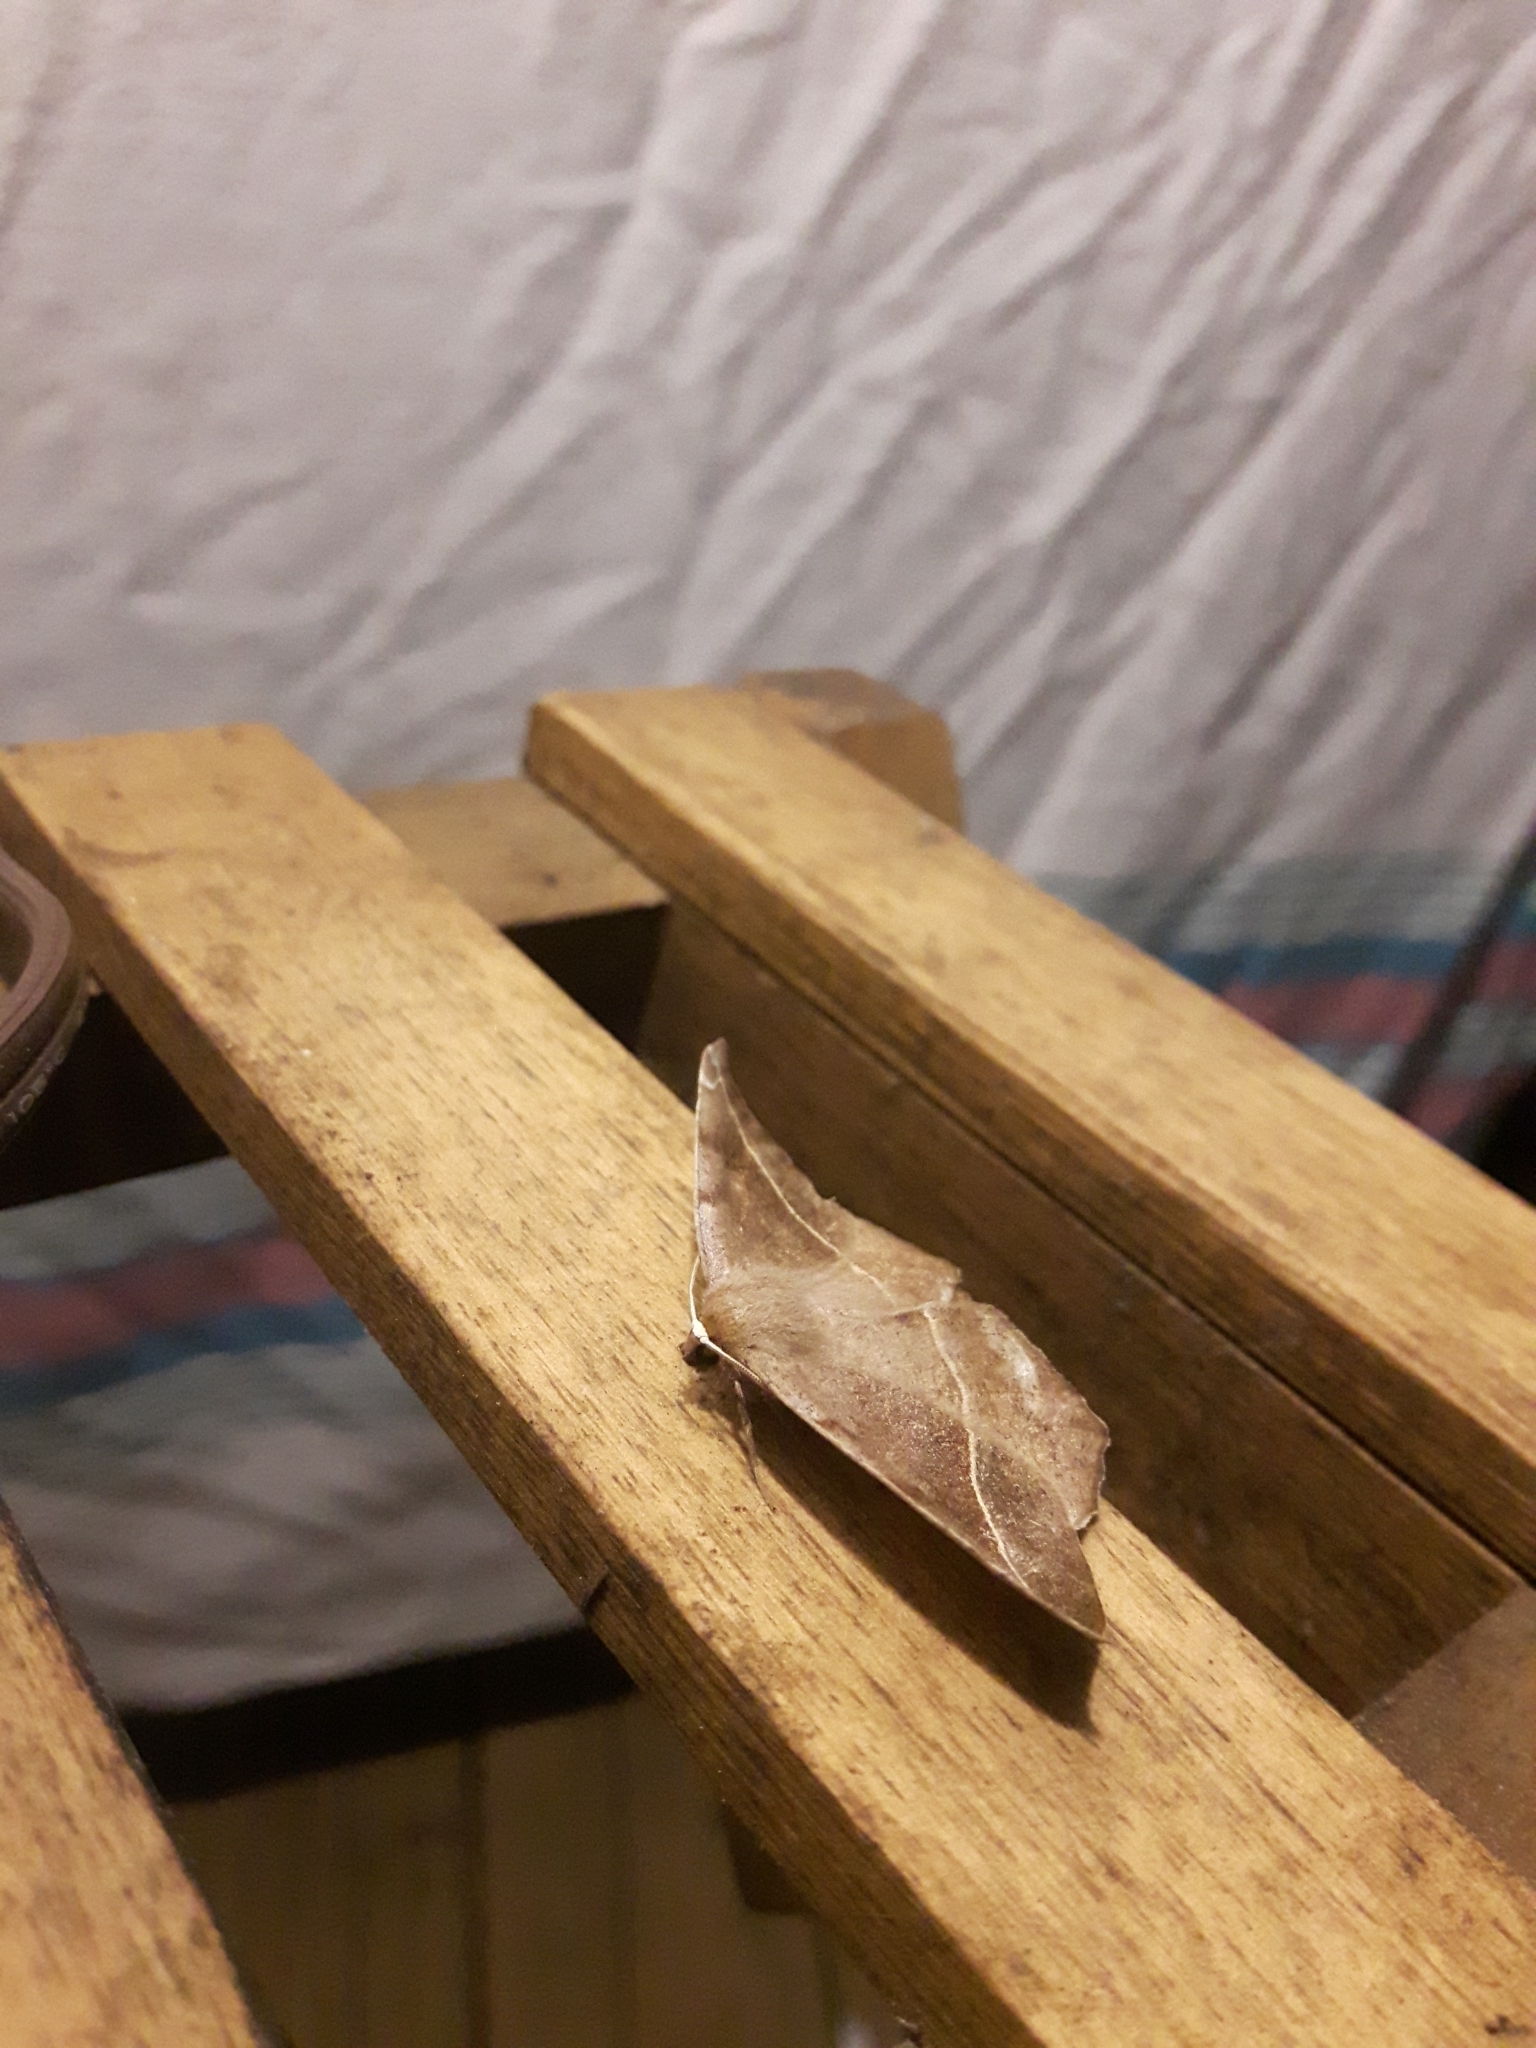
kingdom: Animalia
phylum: Arthropoda
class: Insecta
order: Lepidoptera
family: Geometridae
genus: Eutrapela
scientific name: Eutrapela clemataria
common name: Curved-toothed geometer
